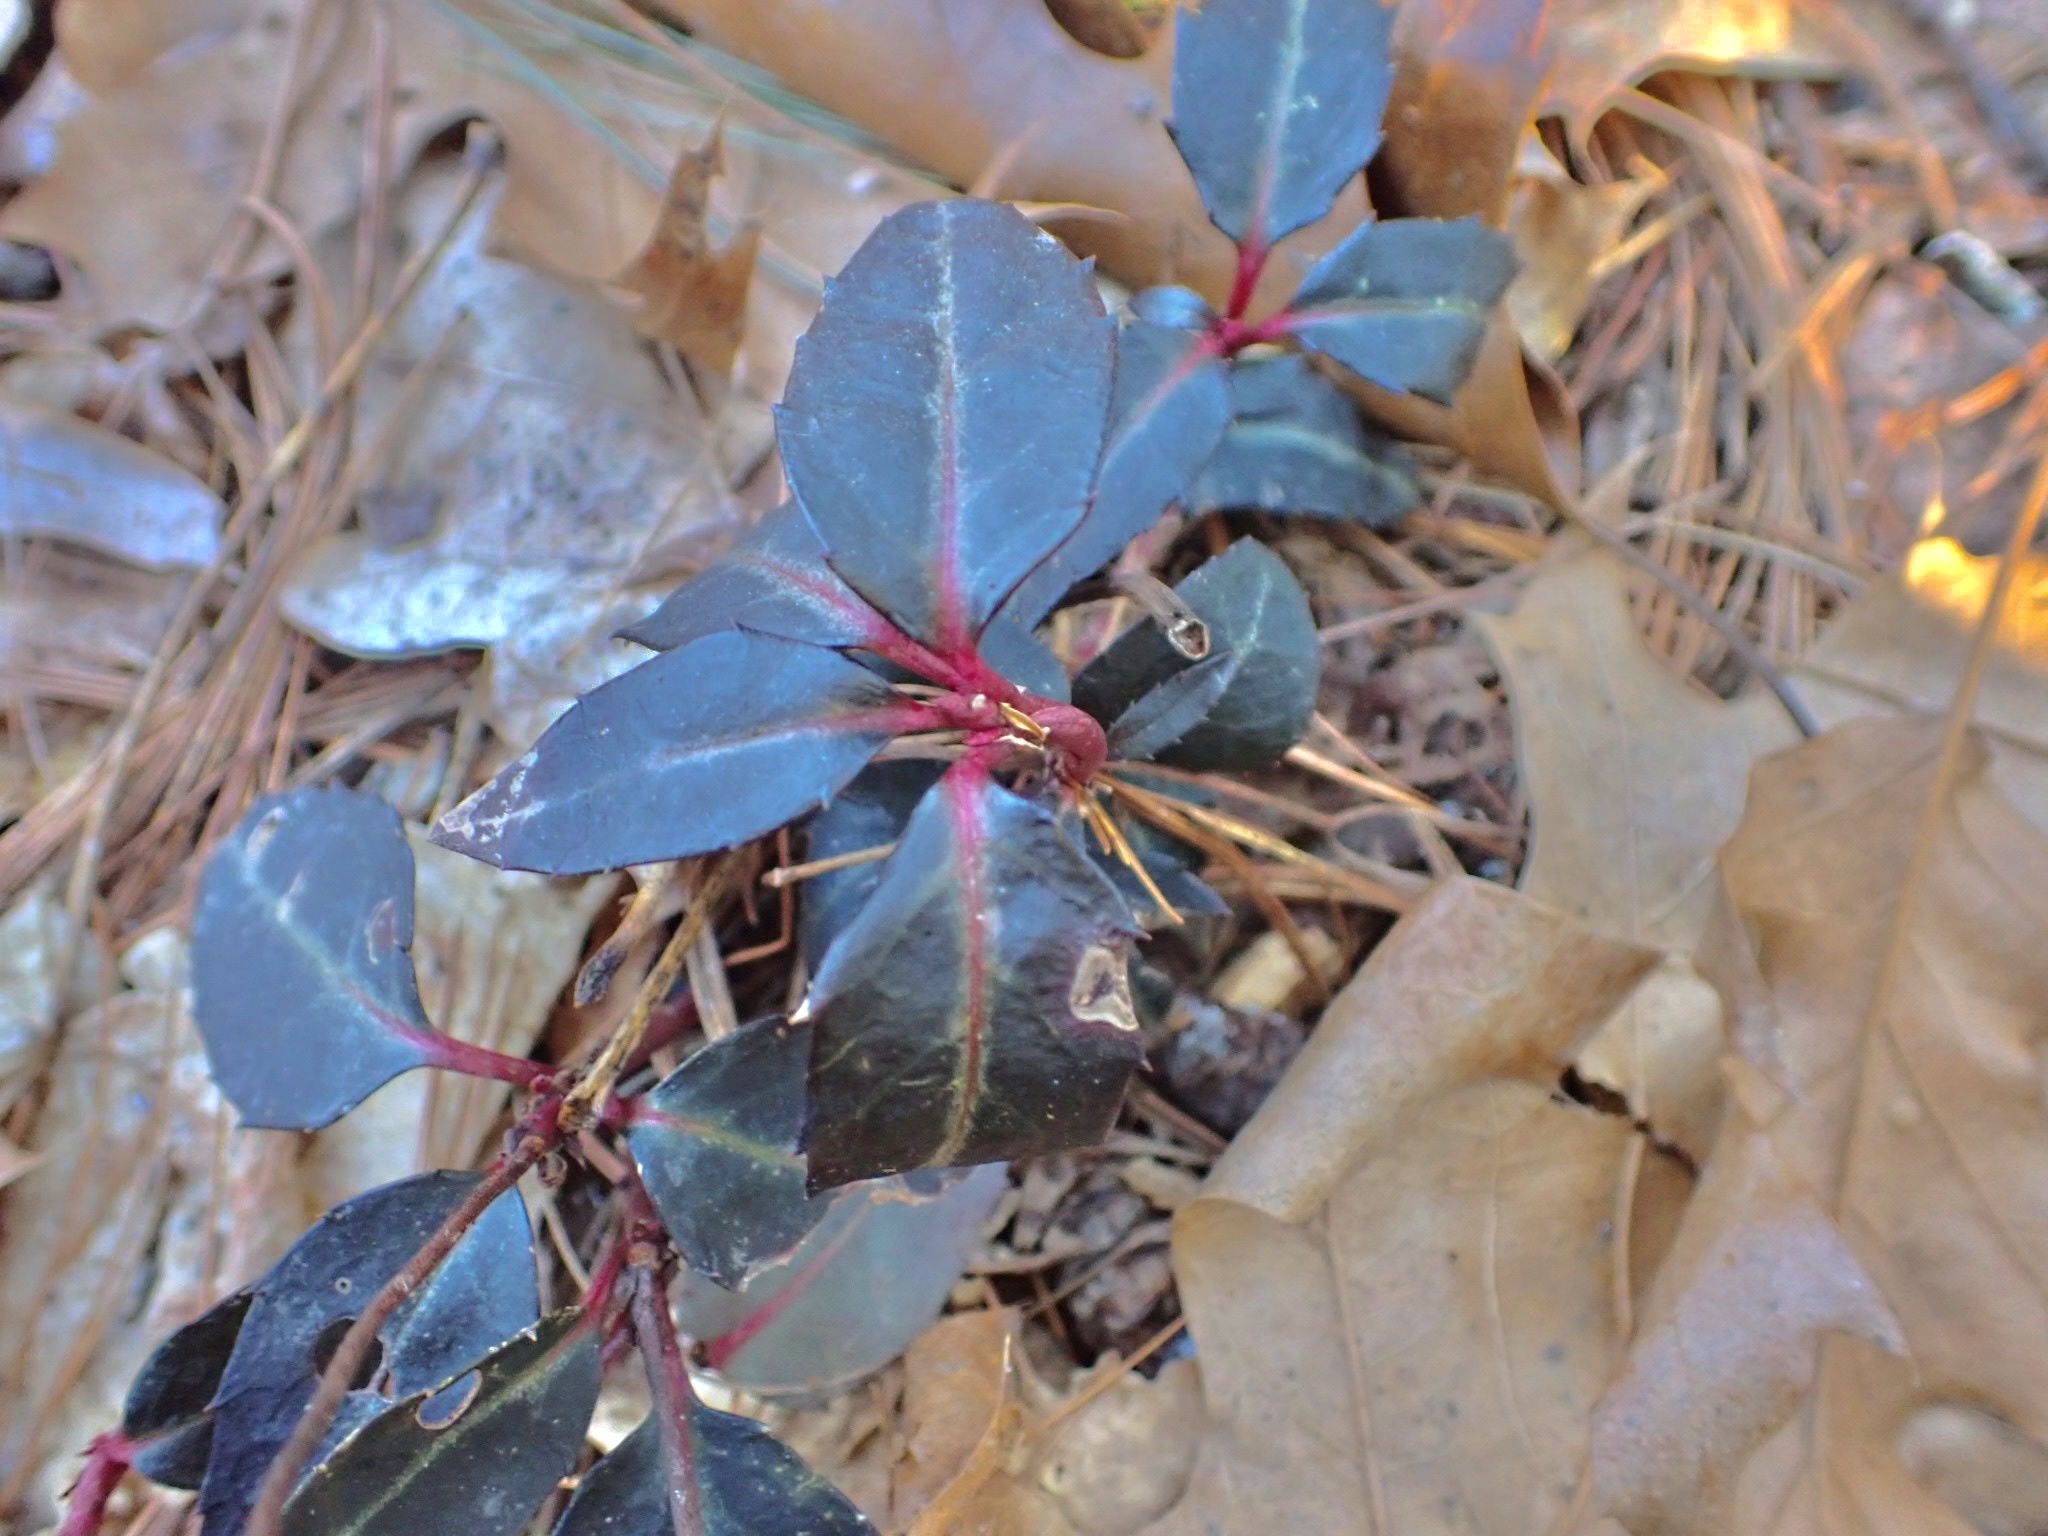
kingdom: Plantae
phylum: Tracheophyta
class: Magnoliopsida
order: Ericales
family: Ericaceae
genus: Chimaphila
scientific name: Chimaphila maculata
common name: Spotted pipsissewa
